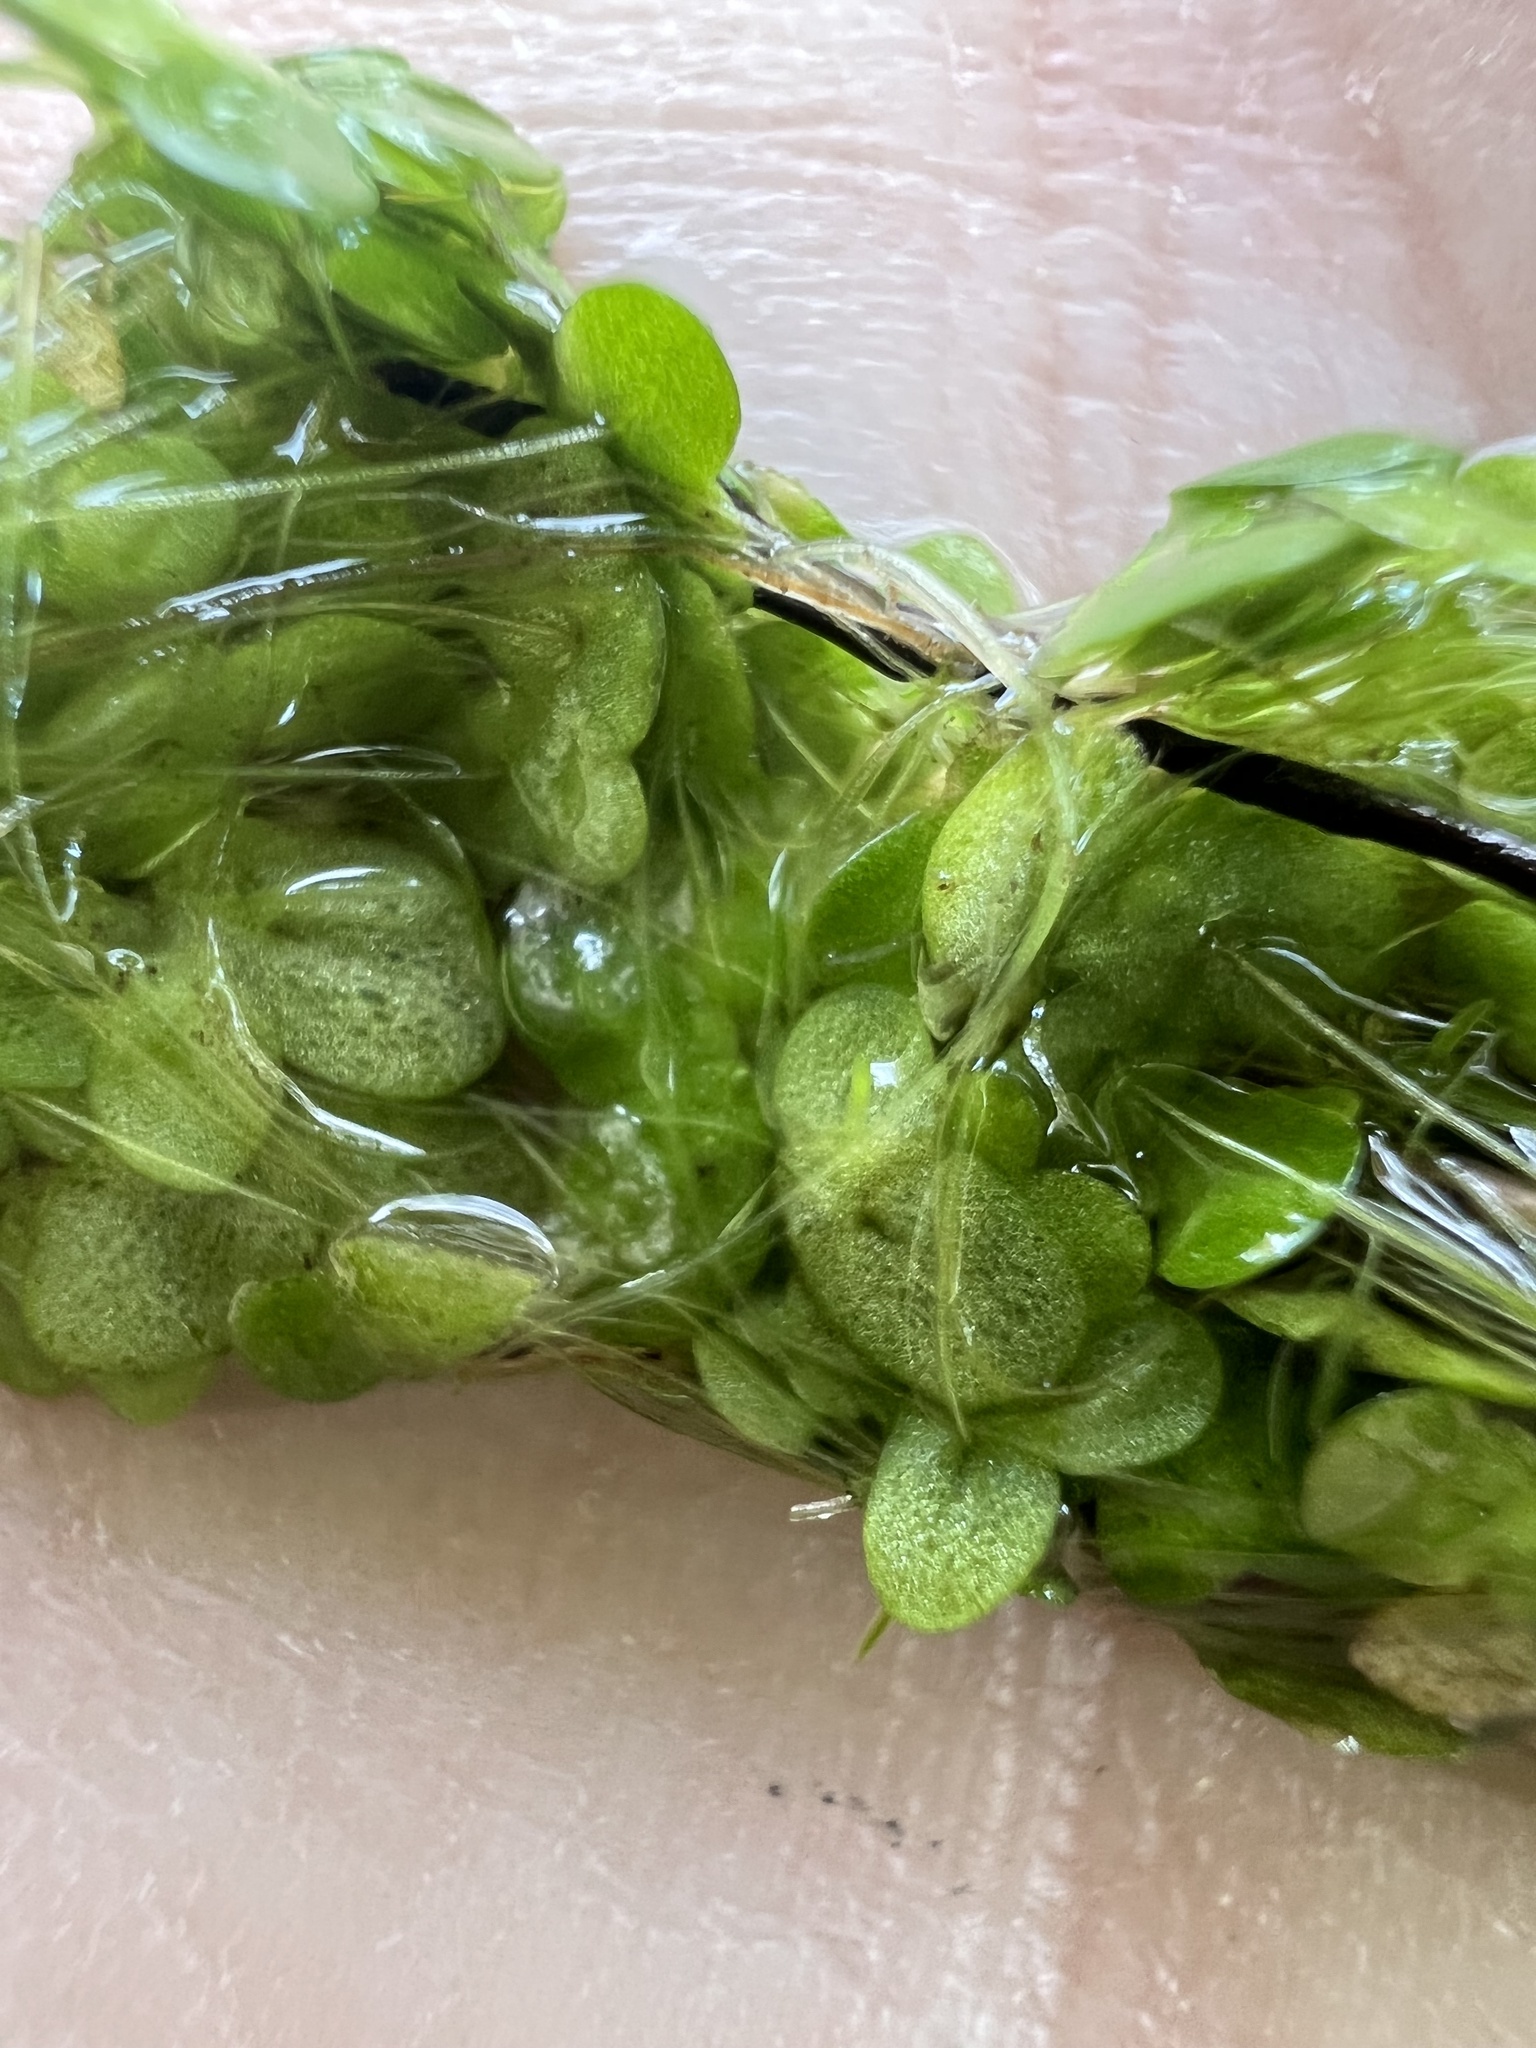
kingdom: Plantae
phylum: Tracheophyta
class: Liliopsida
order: Alismatales
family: Araceae
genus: Lemna
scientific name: Lemna minuta
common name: Least duckweed
